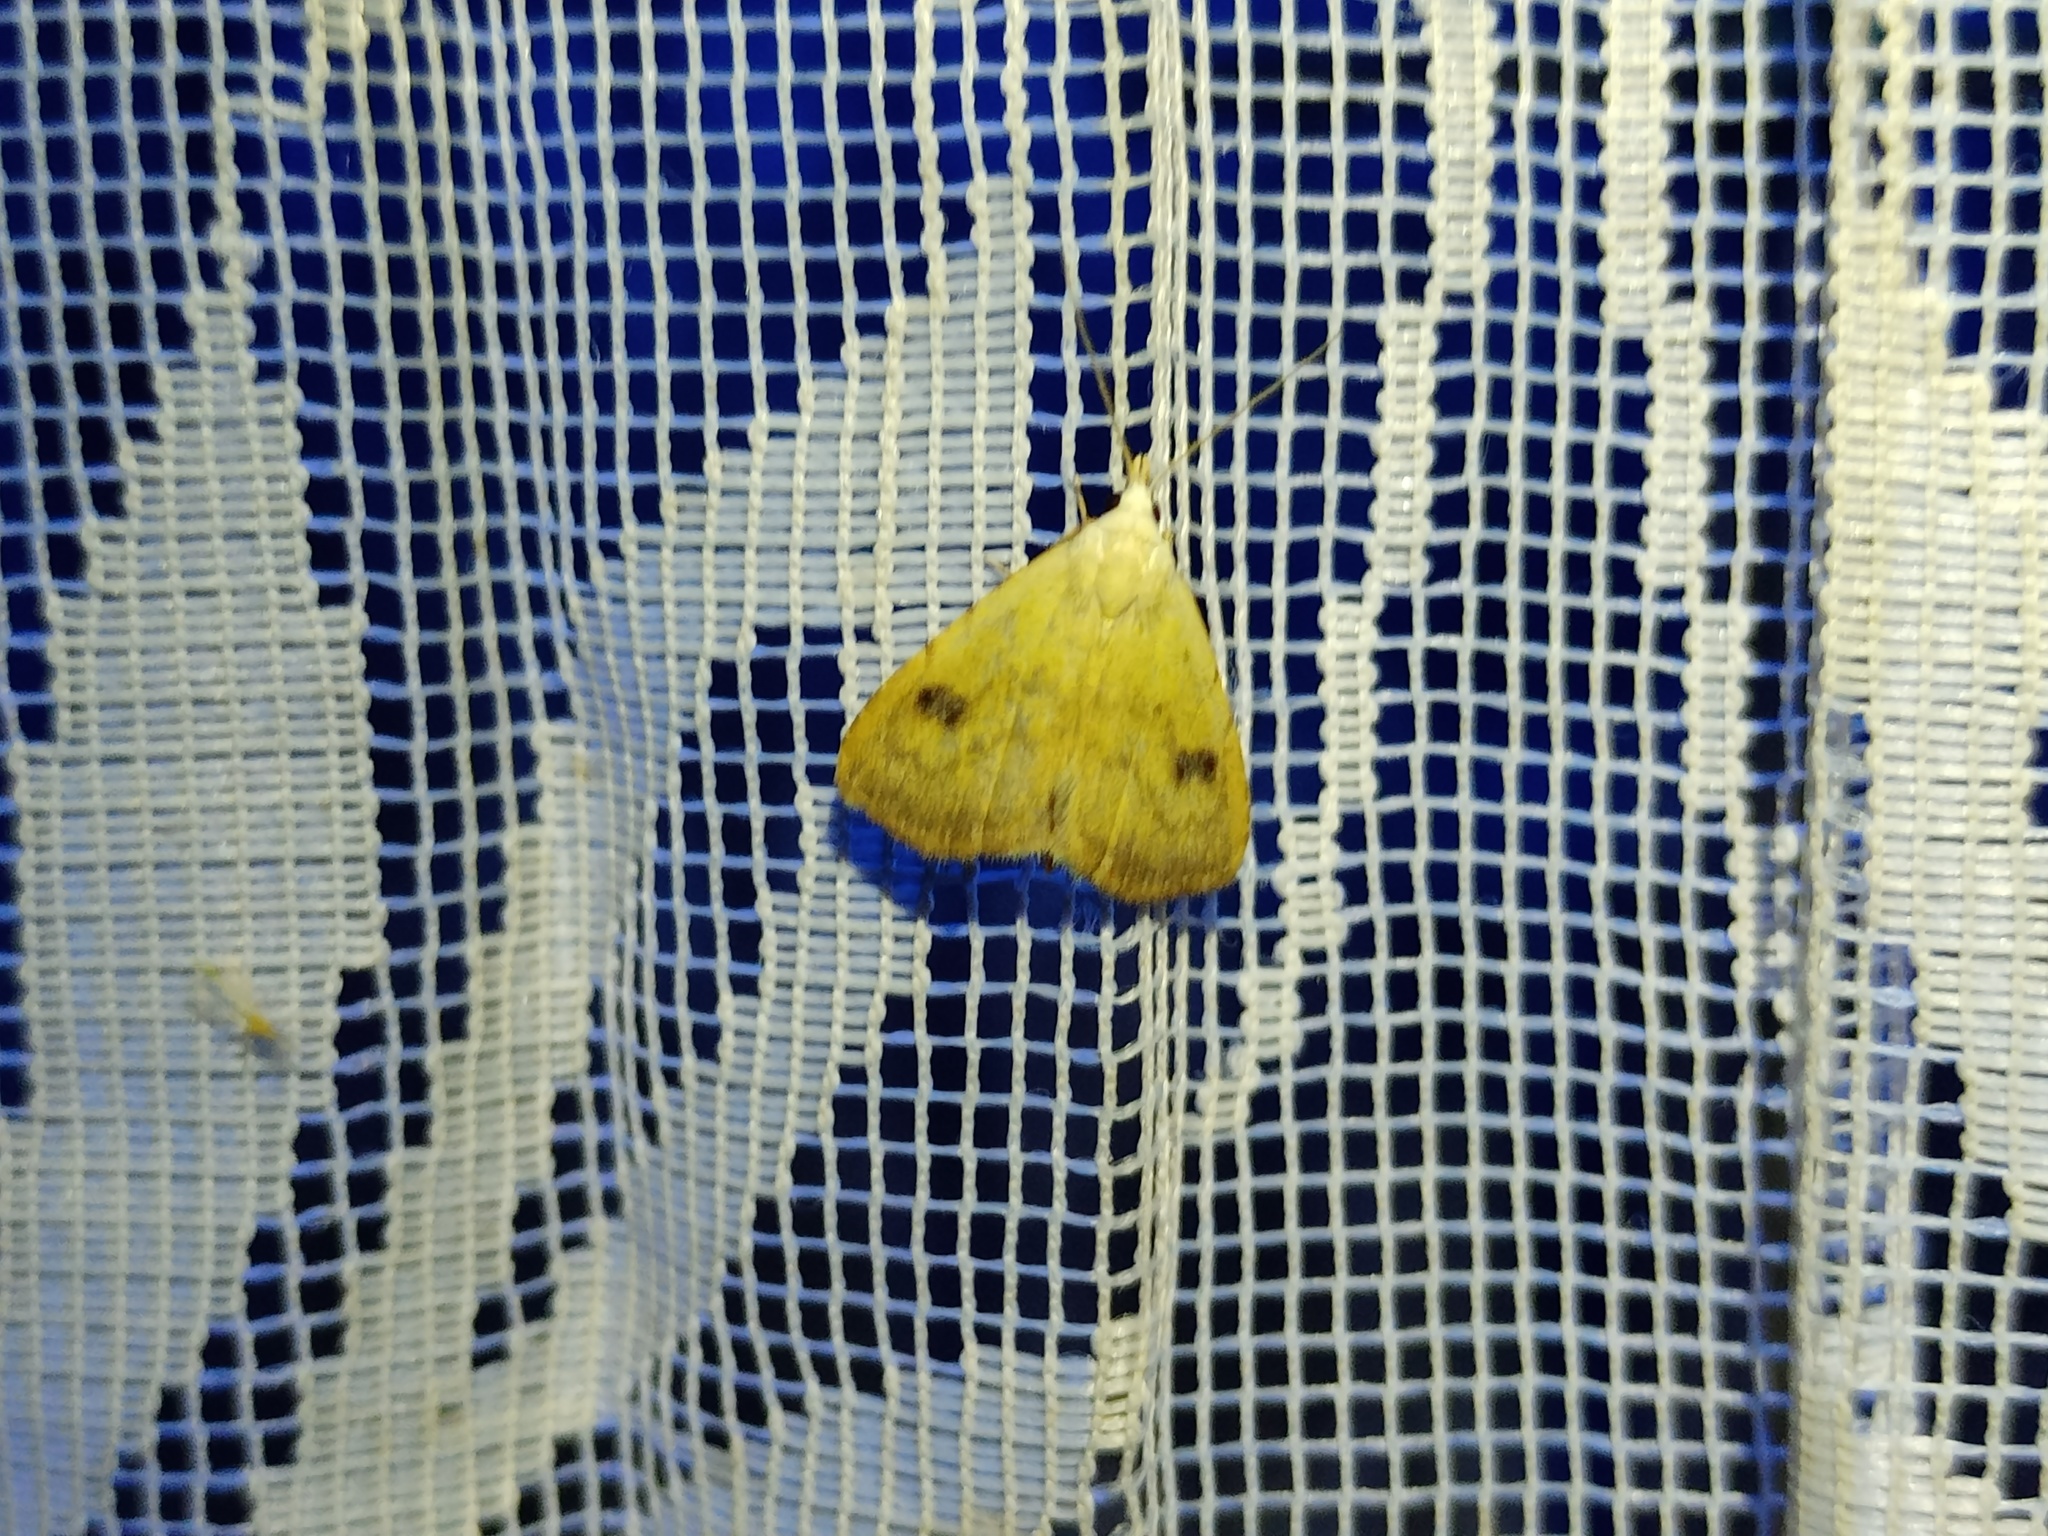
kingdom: Animalia
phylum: Arthropoda
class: Insecta
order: Lepidoptera
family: Erebidae
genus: Rivula
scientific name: Rivula sericealis
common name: Straw dot
